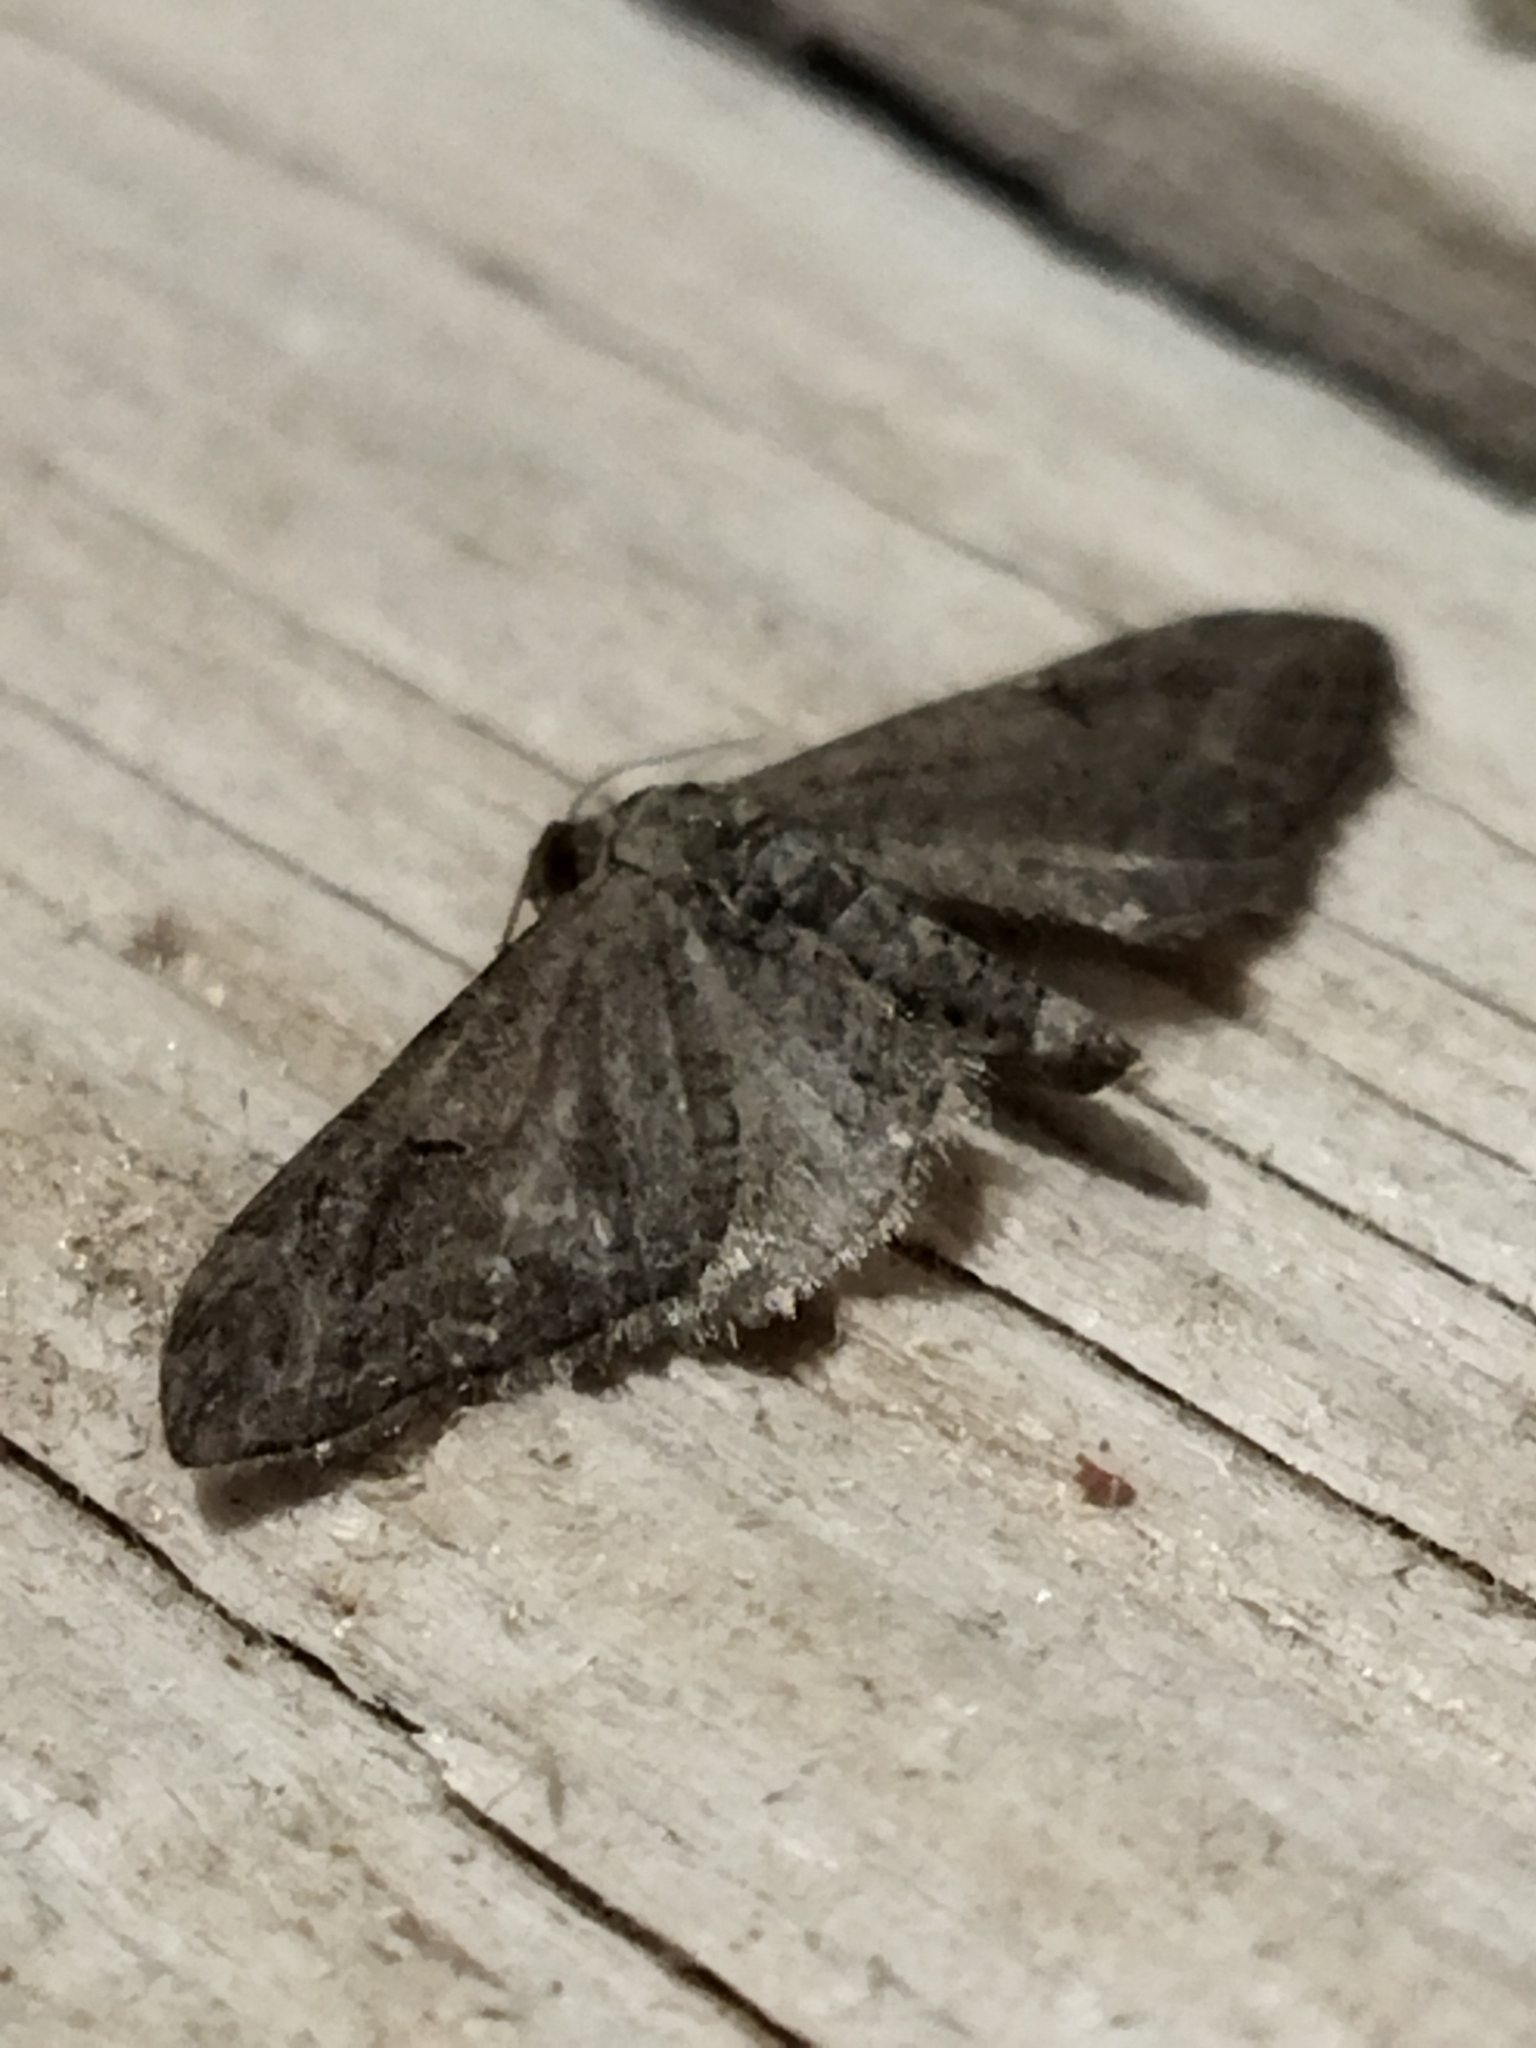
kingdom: Animalia
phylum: Arthropoda
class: Insecta
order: Lepidoptera
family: Geometridae
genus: Eupithecia
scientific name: Eupithecia innotata
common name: Angle-barred pug
